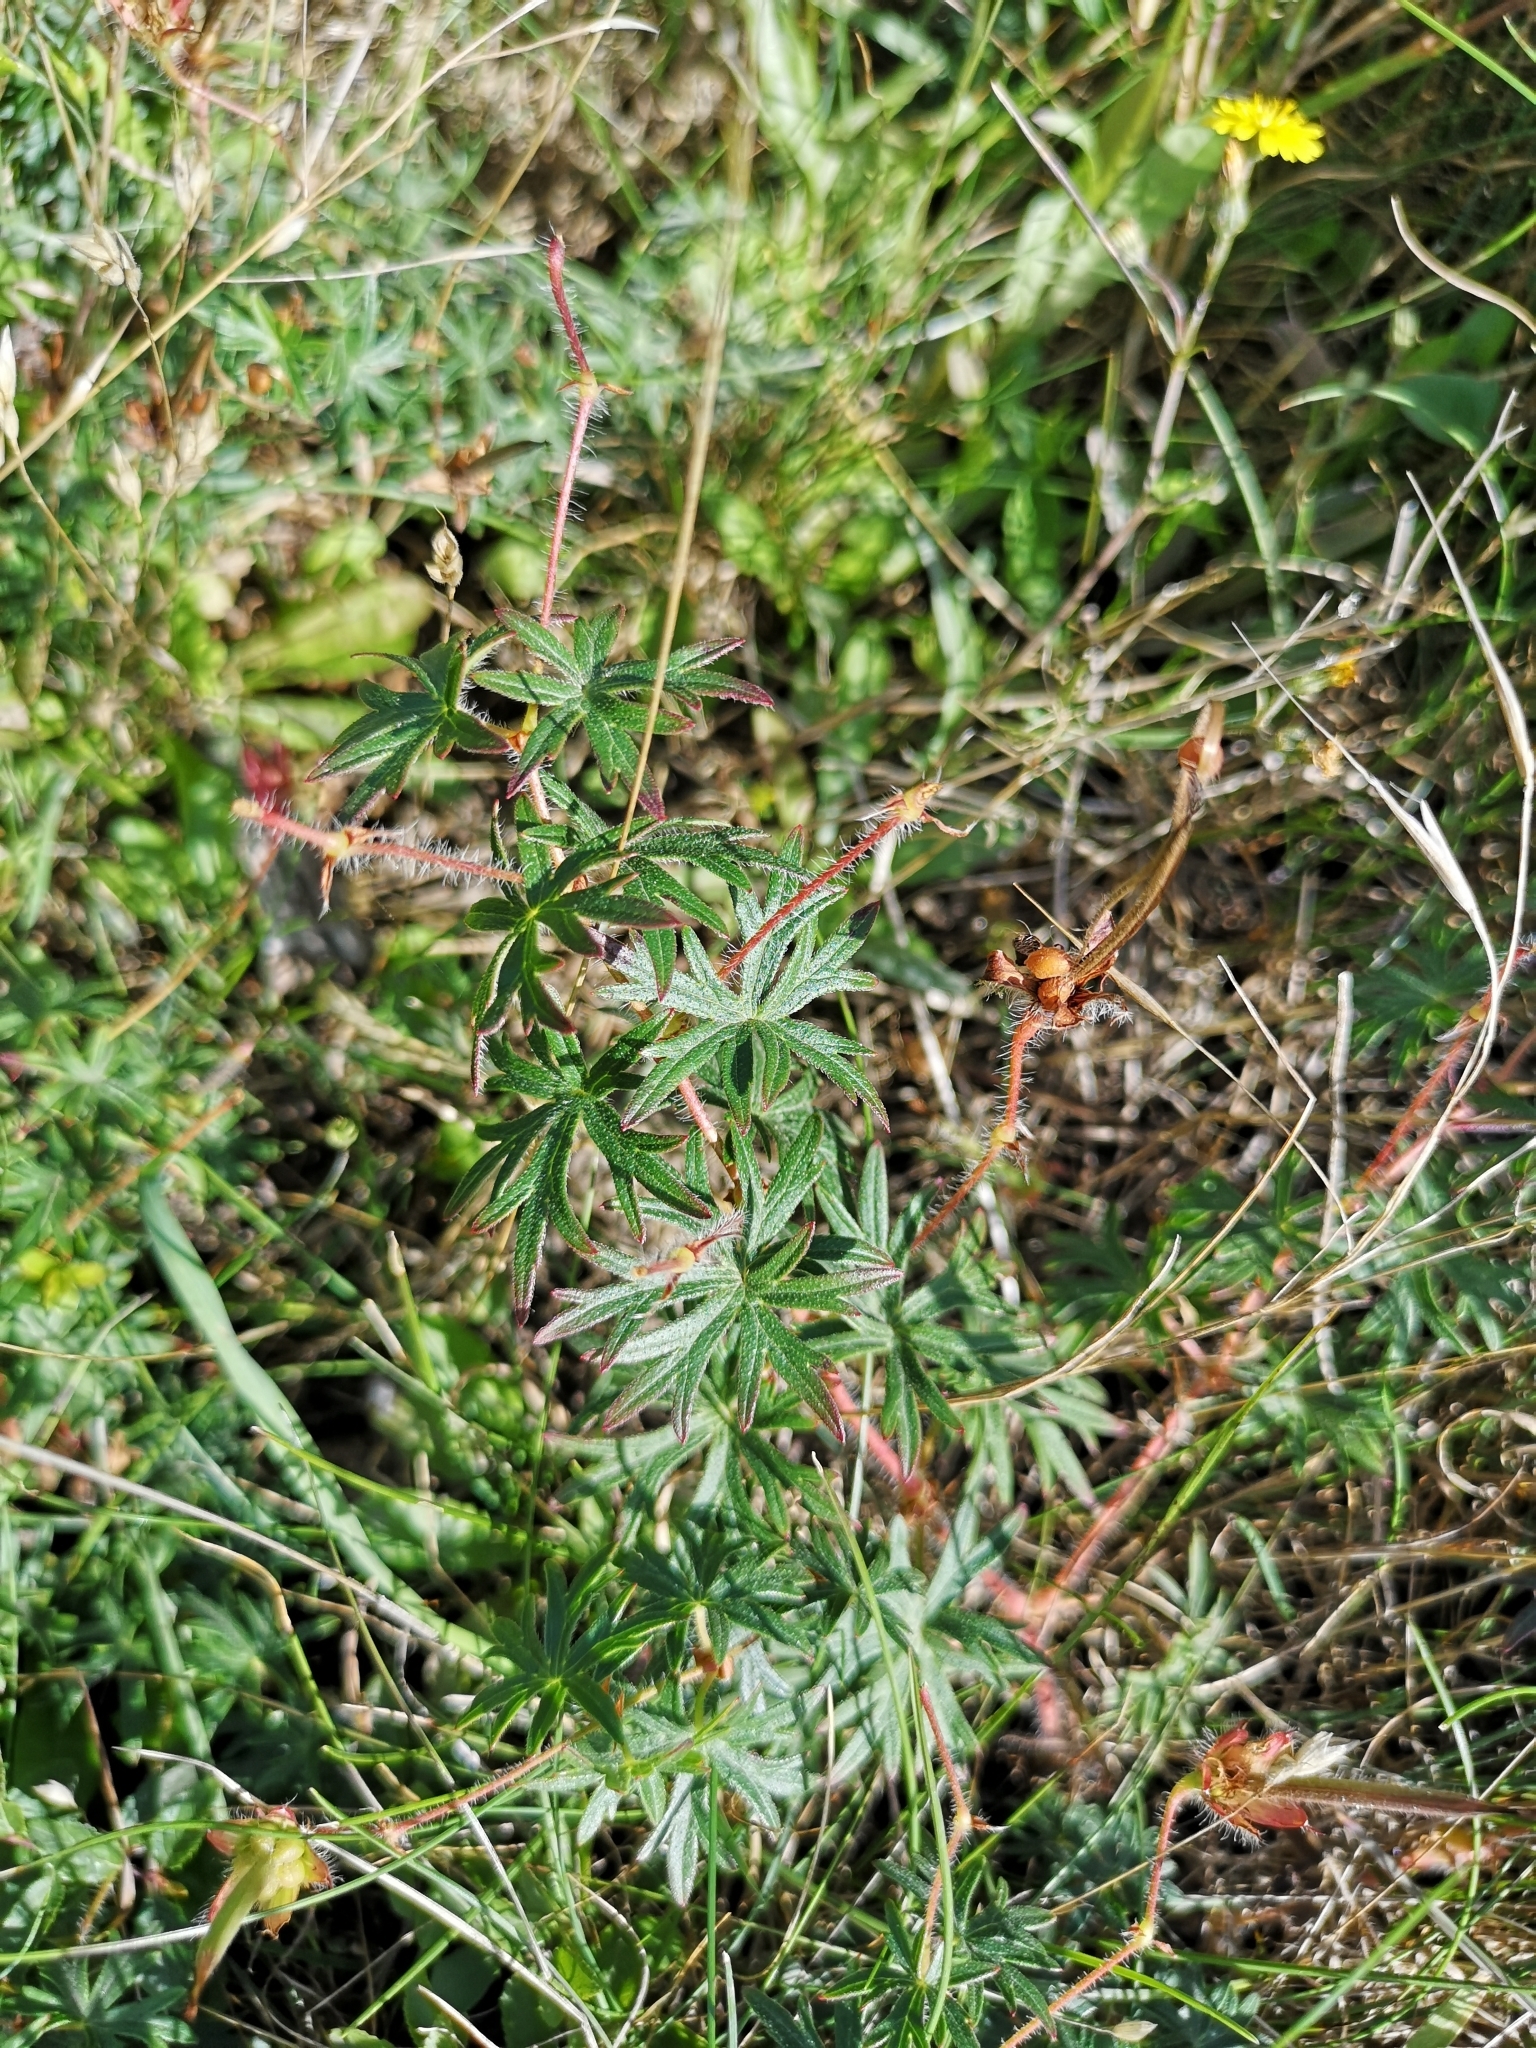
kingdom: Plantae
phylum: Tracheophyta
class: Magnoliopsida
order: Geraniales
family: Geraniaceae
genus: Geranium
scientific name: Geranium sanguineum
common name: Bloody crane's-bill
